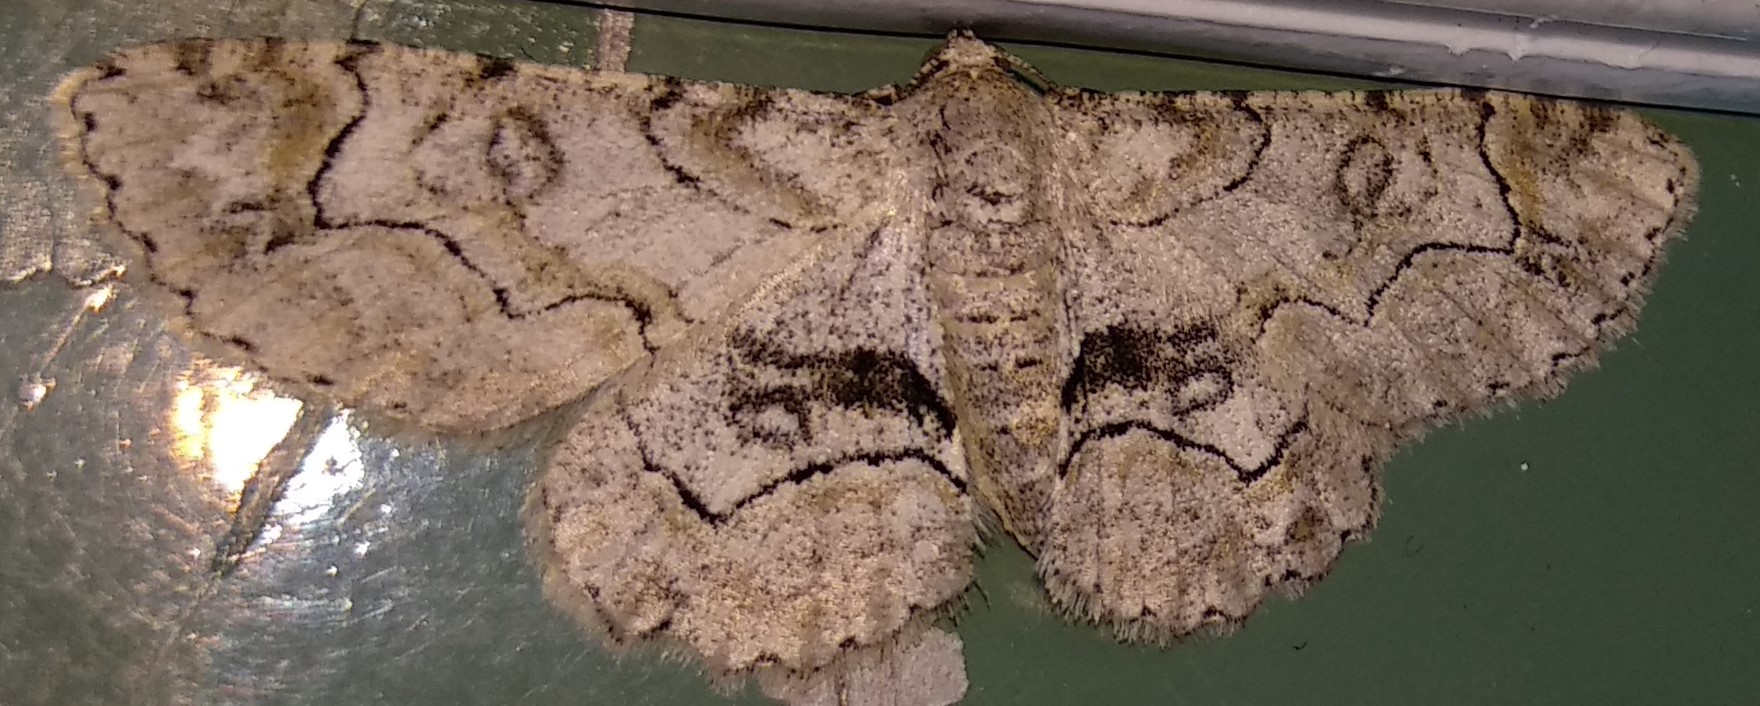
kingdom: Animalia
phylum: Arthropoda
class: Insecta
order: Lepidoptera
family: Geometridae
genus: Iridopsis
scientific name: Iridopsis larvaria
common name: Bent-line gray
